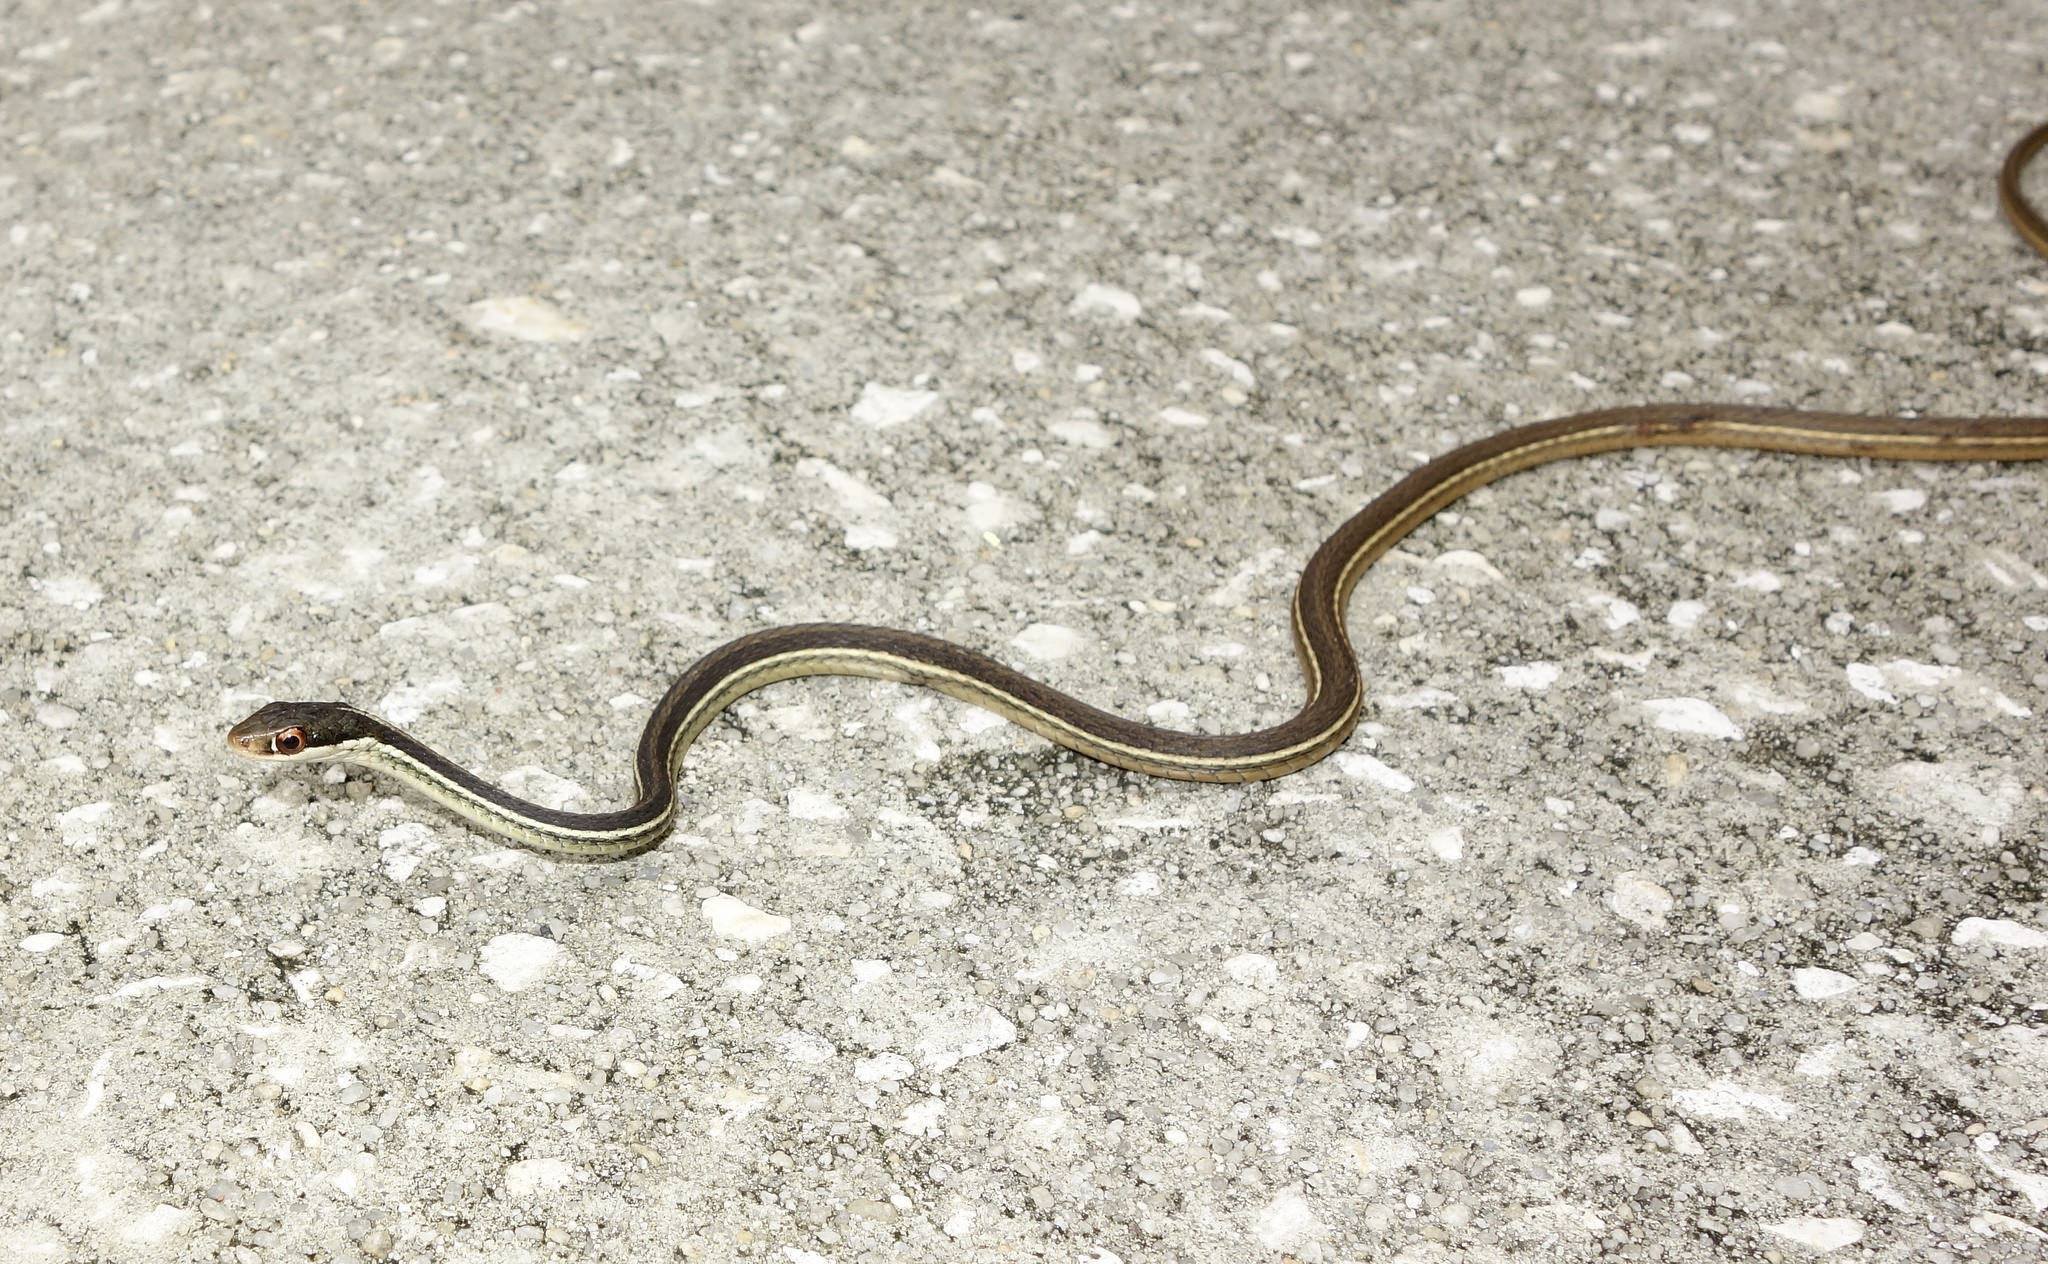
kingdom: Animalia
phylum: Chordata
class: Squamata
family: Colubridae
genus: Thamnophis
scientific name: Thamnophis saurita
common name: Eastern ribbonsnake
